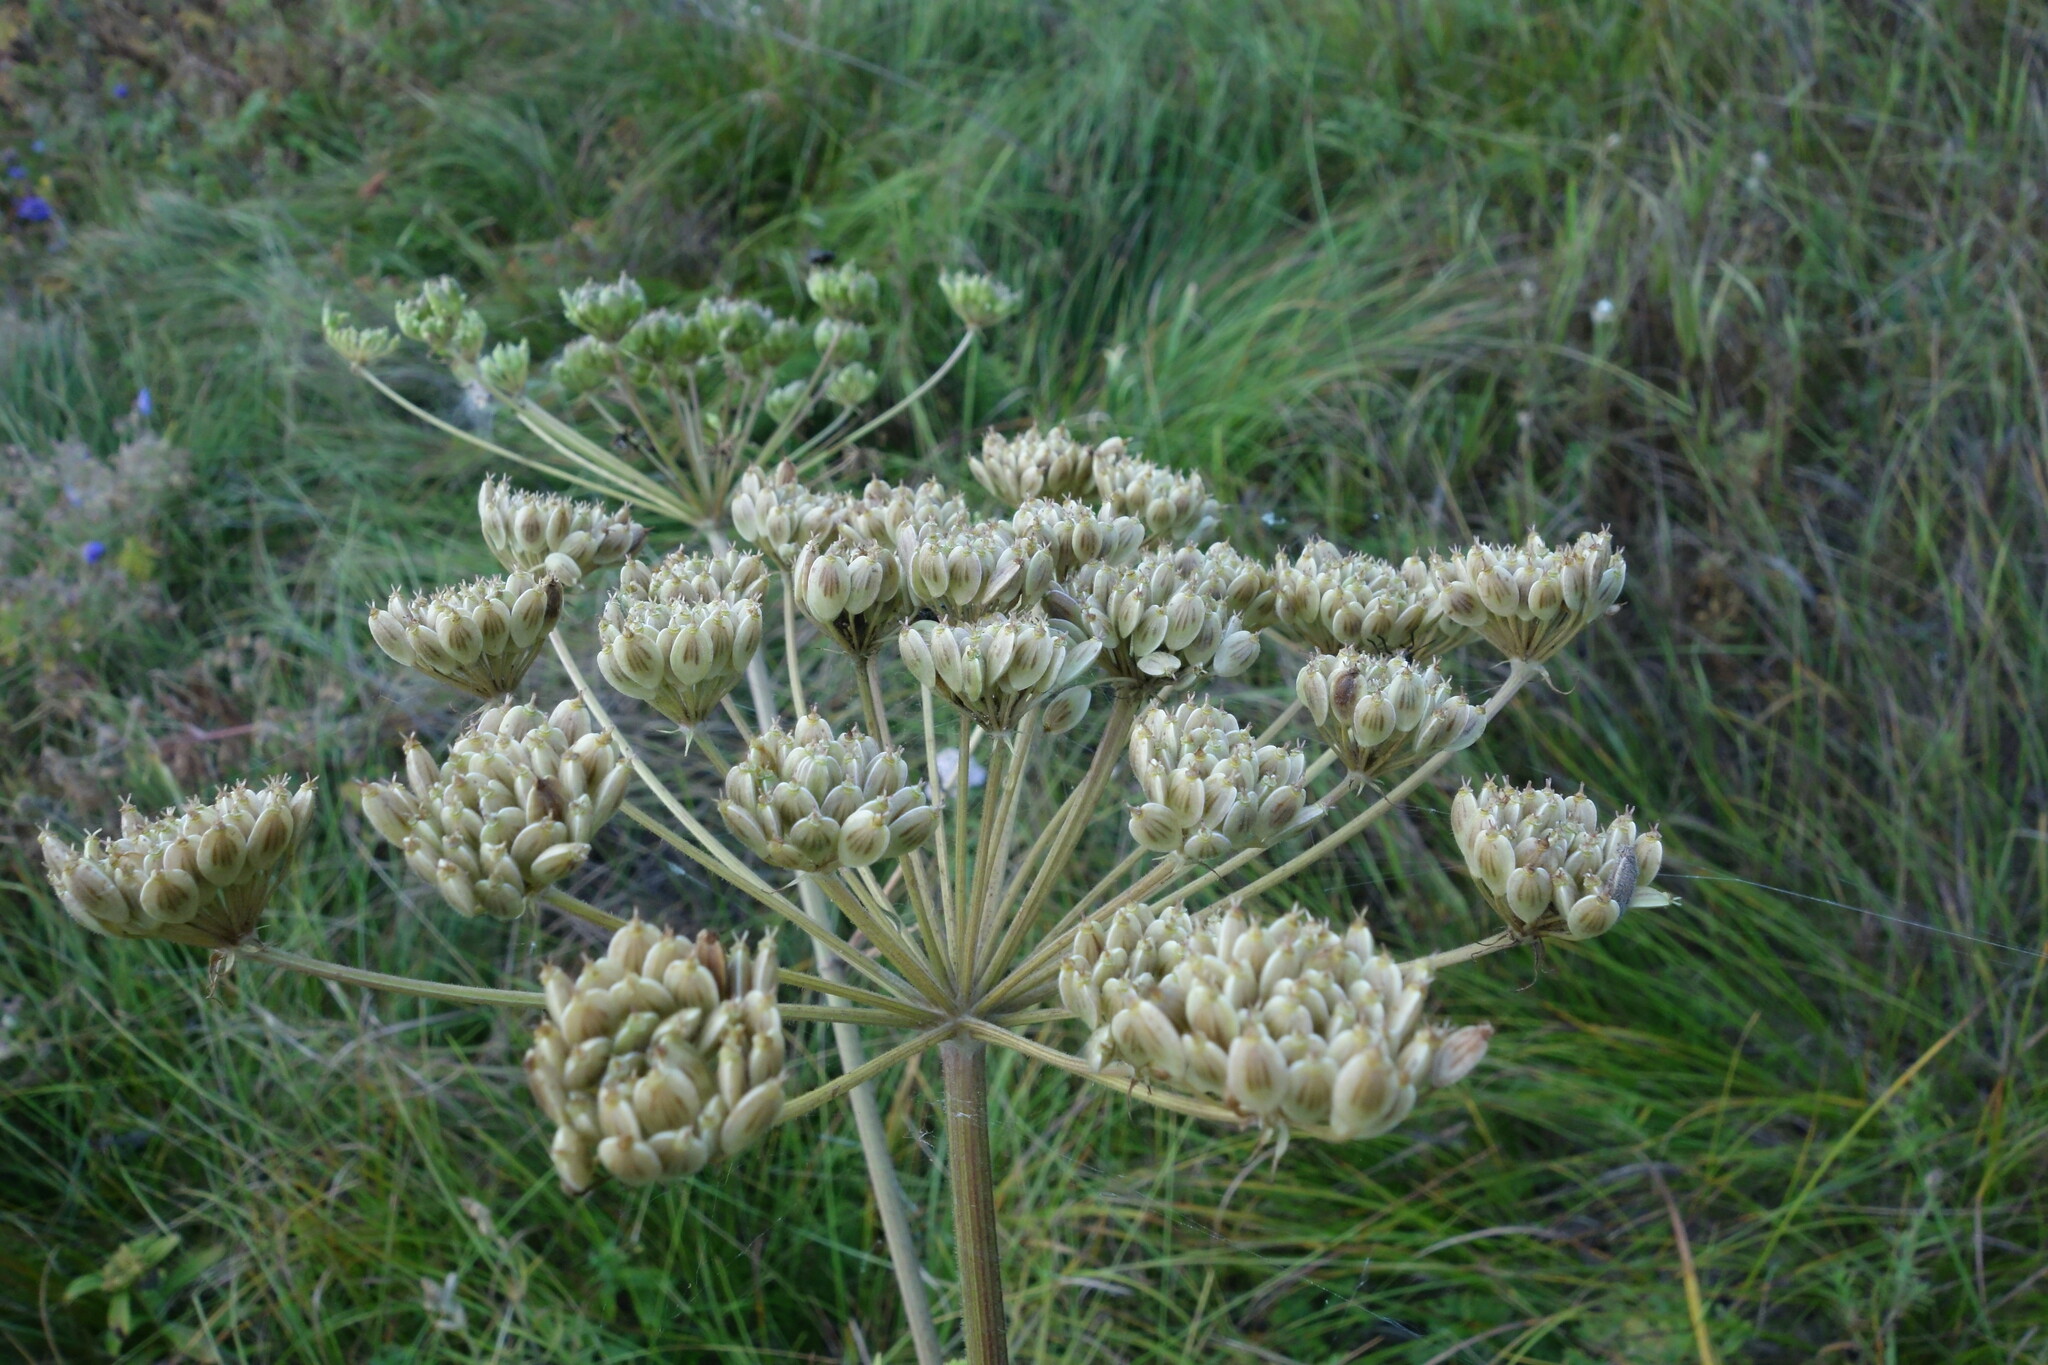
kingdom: Plantae
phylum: Tracheophyta
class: Magnoliopsida
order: Apiales
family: Apiaceae
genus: Heracleum
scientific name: Heracleum dissectum
